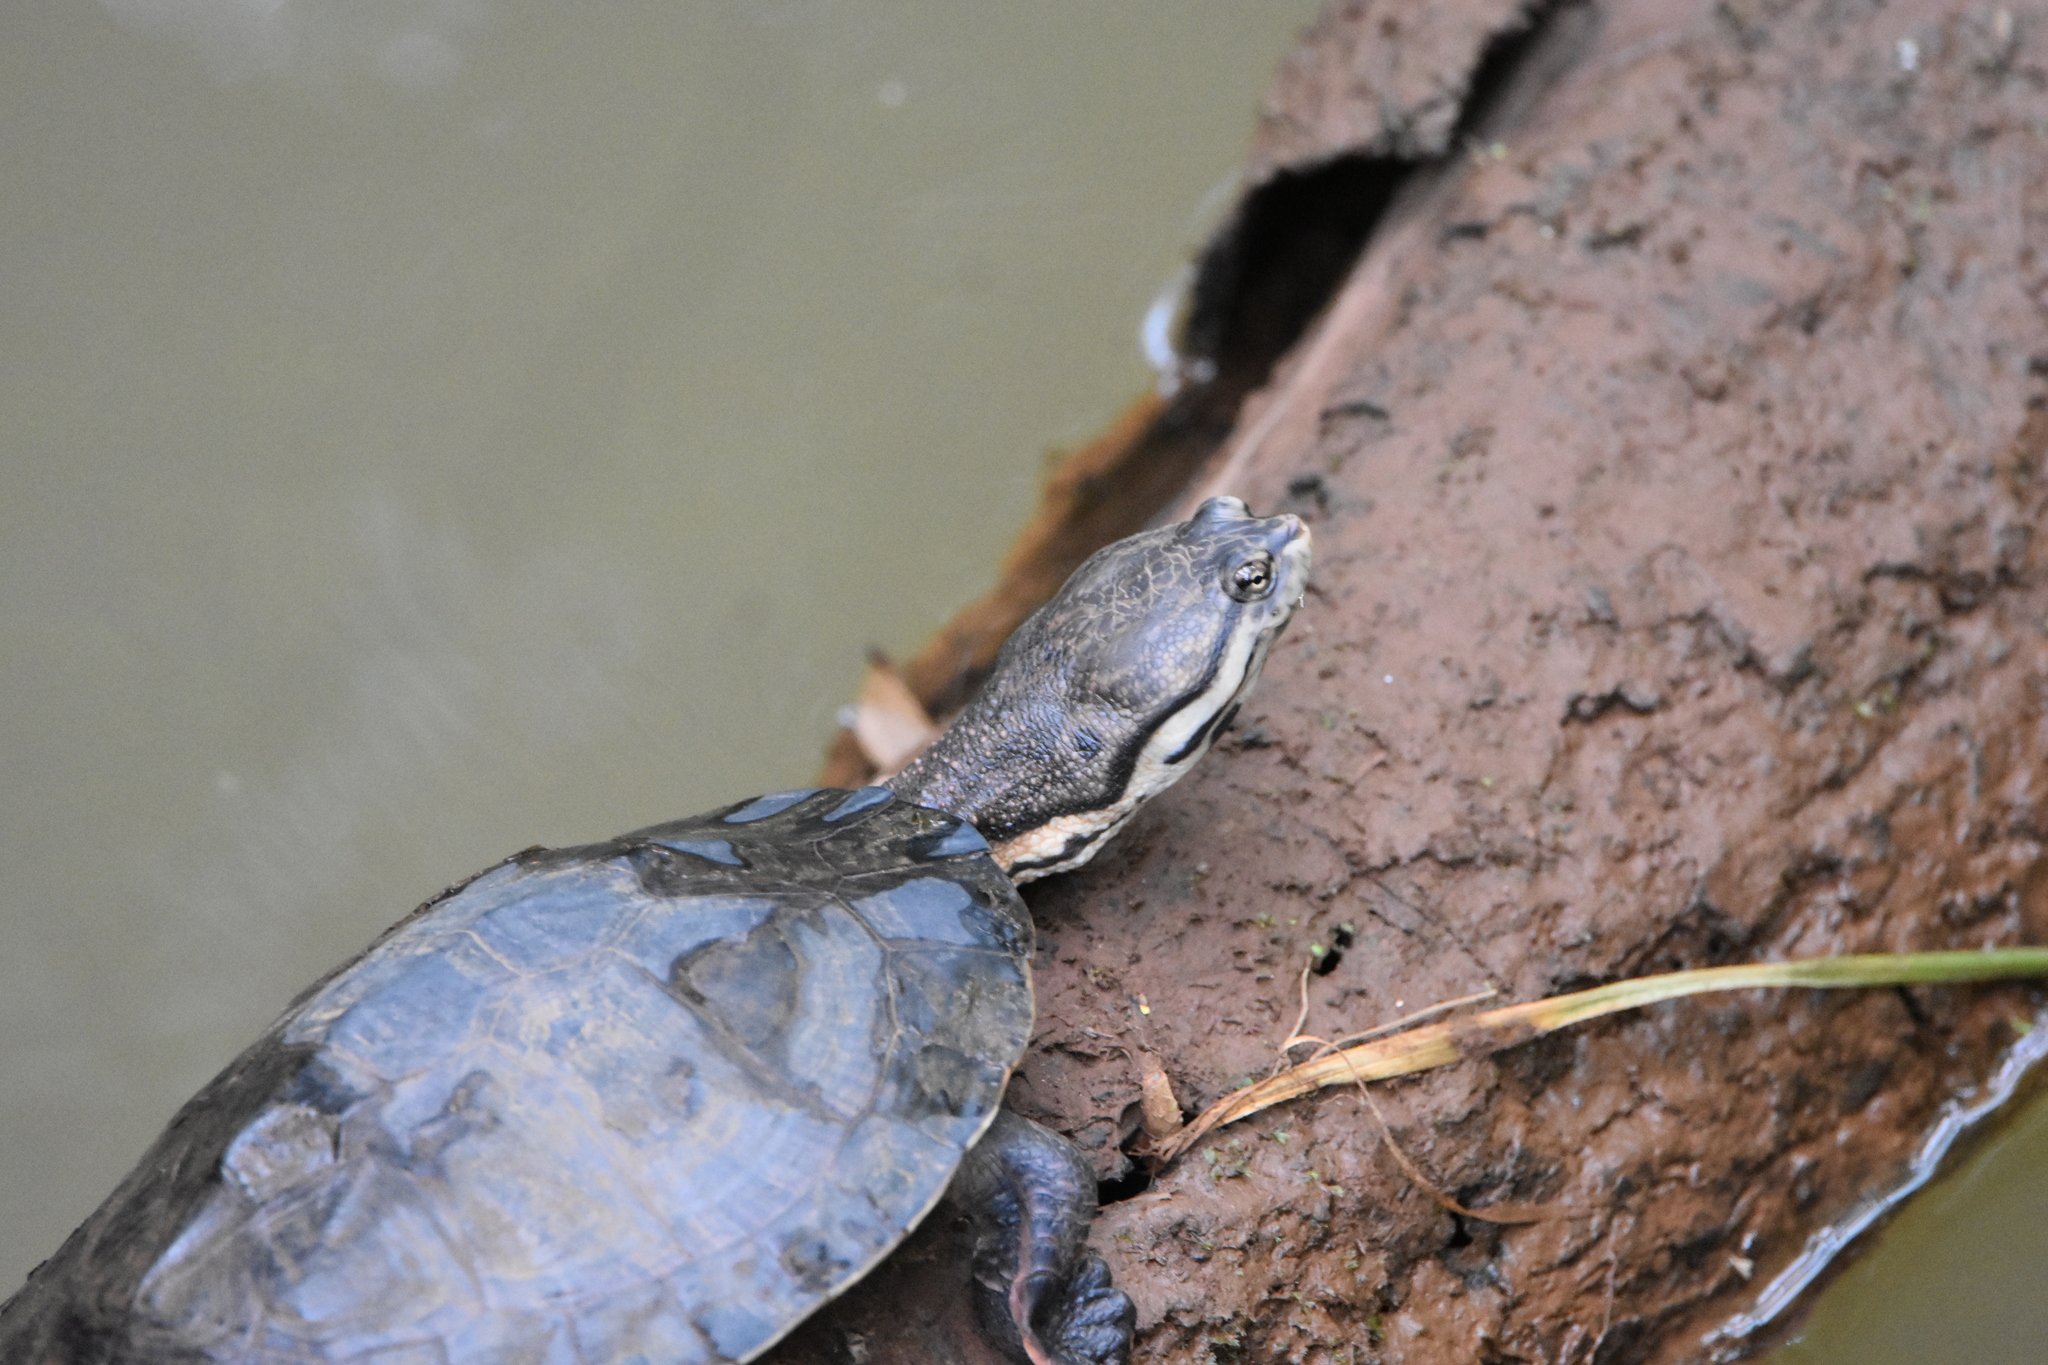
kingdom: Animalia
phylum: Chordata
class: Testudines
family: Chelidae
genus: Phrynops
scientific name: Phrynops williamsi
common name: Williams side-necked turtle
